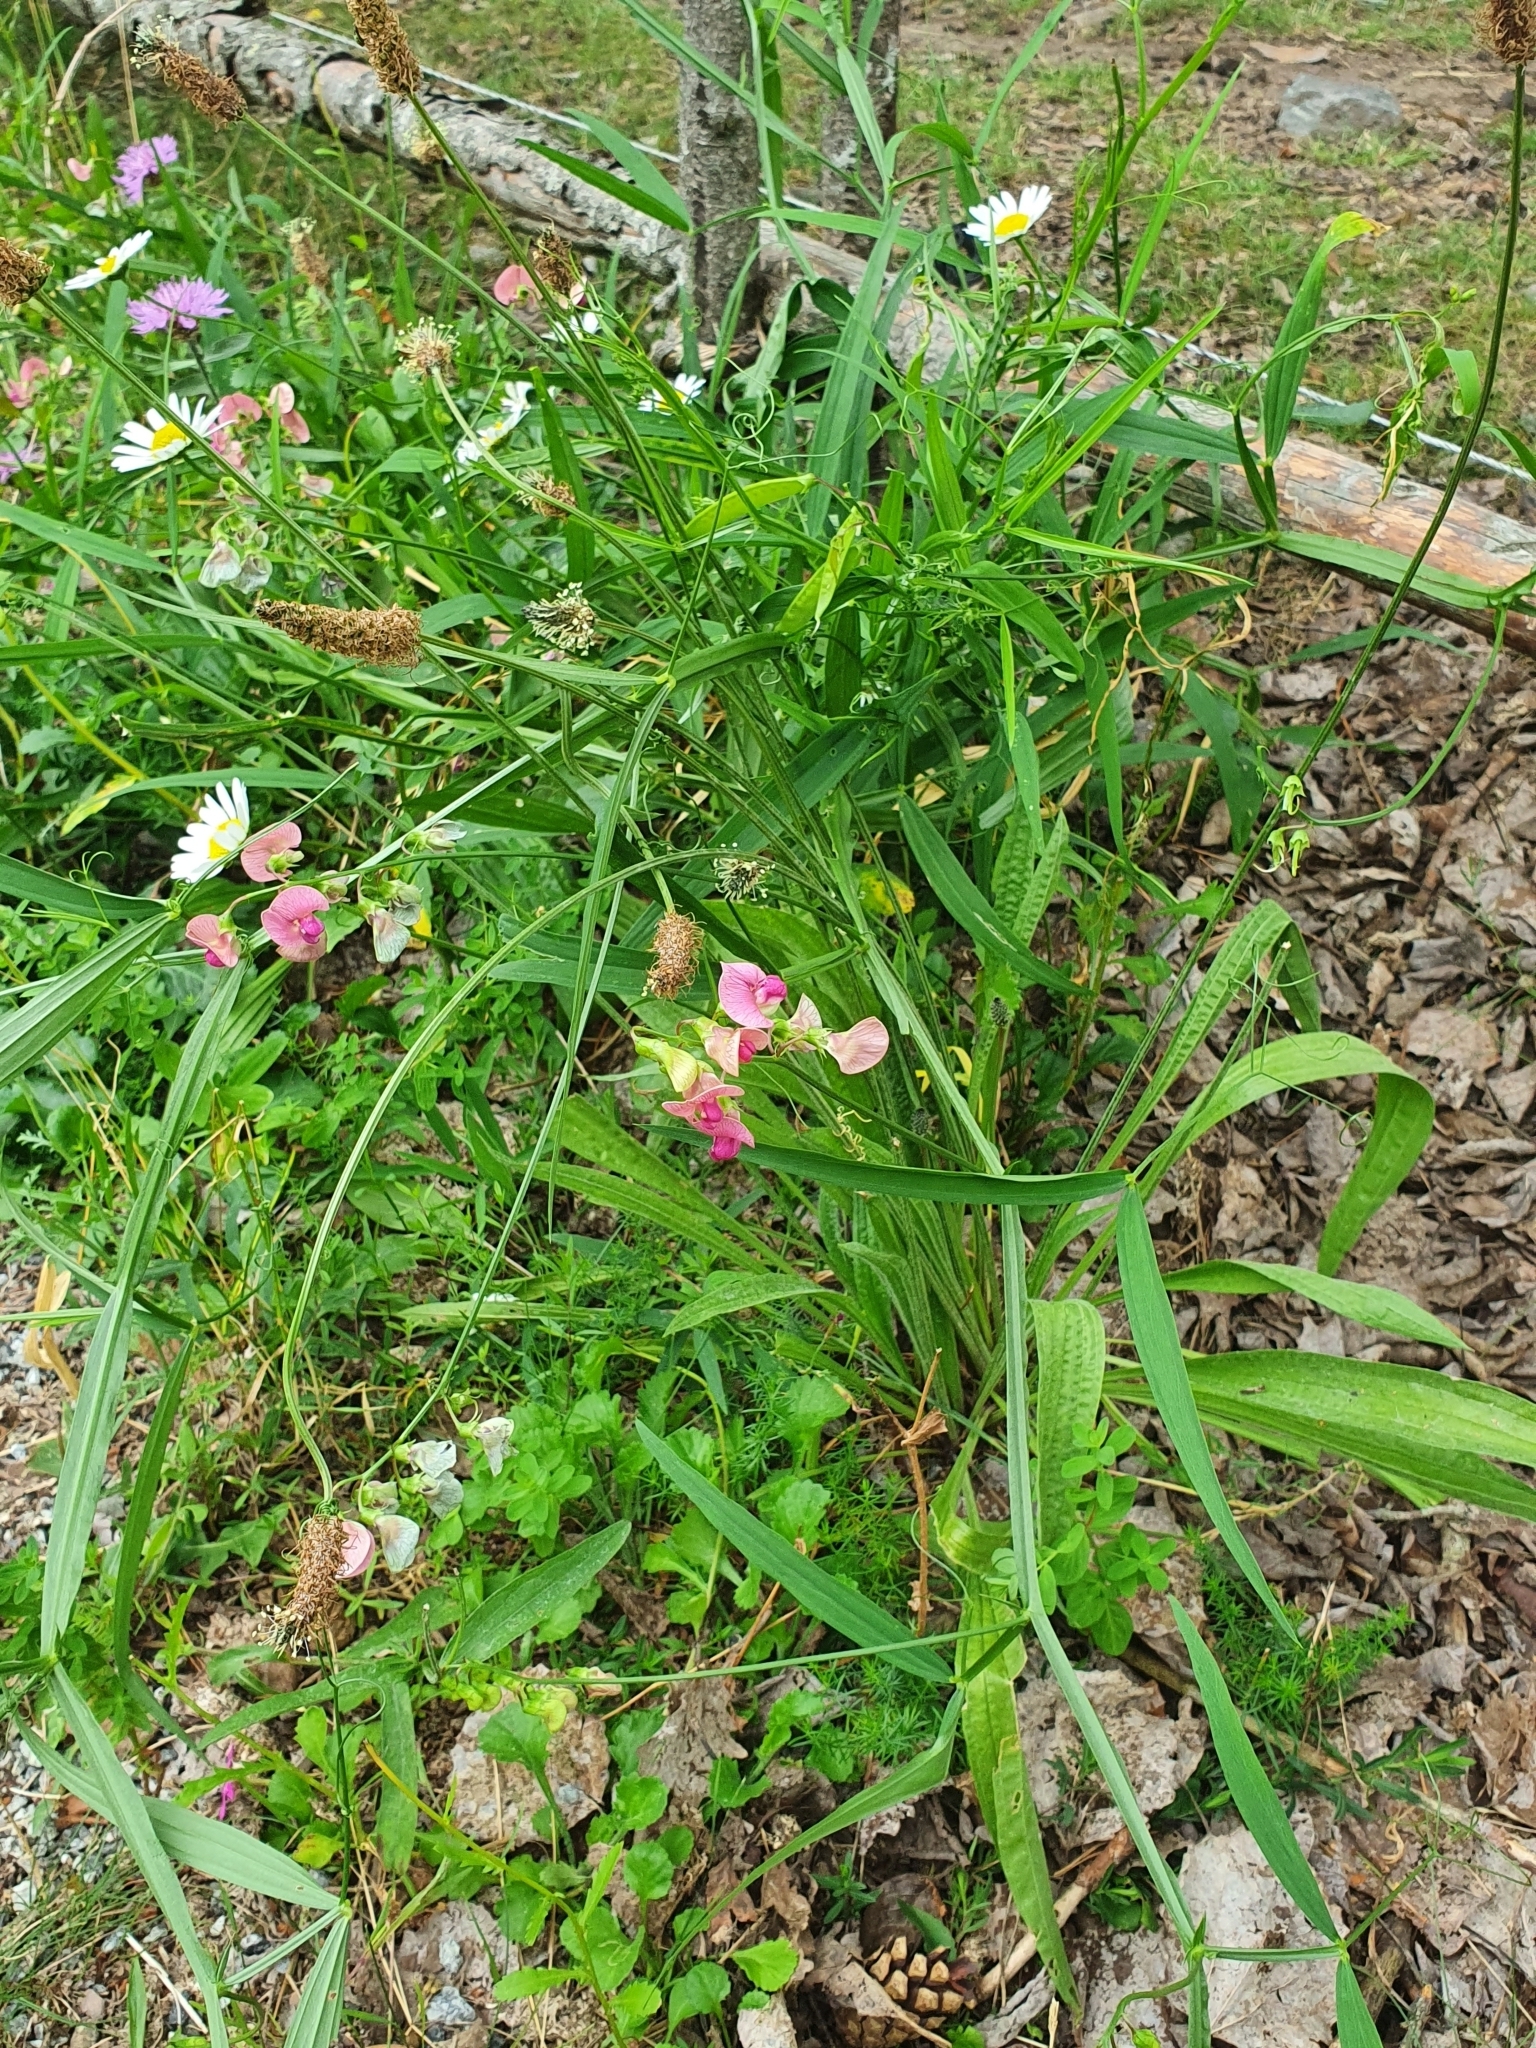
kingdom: Plantae
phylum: Tracheophyta
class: Magnoliopsida
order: Lamiales
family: Plantaginaceae
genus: Plantago
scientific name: Plantago lanceolata
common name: Ribwort plantain
